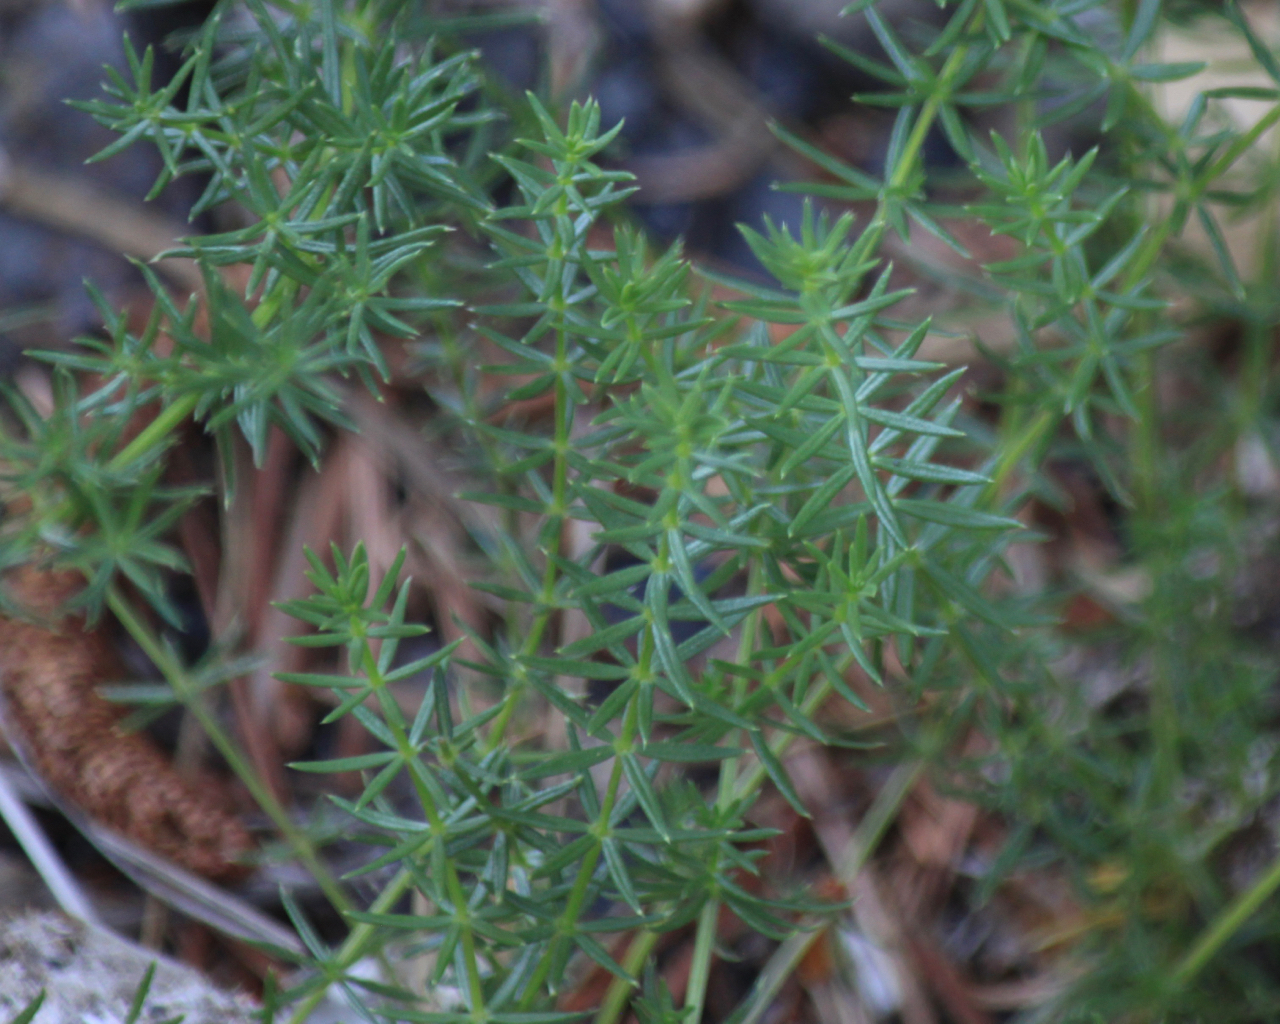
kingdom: Plantae
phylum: Tracheophyta
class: Magnoliopsida
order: Gentianales
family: Rubiaceae
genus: Galium
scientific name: Galium verum
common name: Lady's bedstraw
